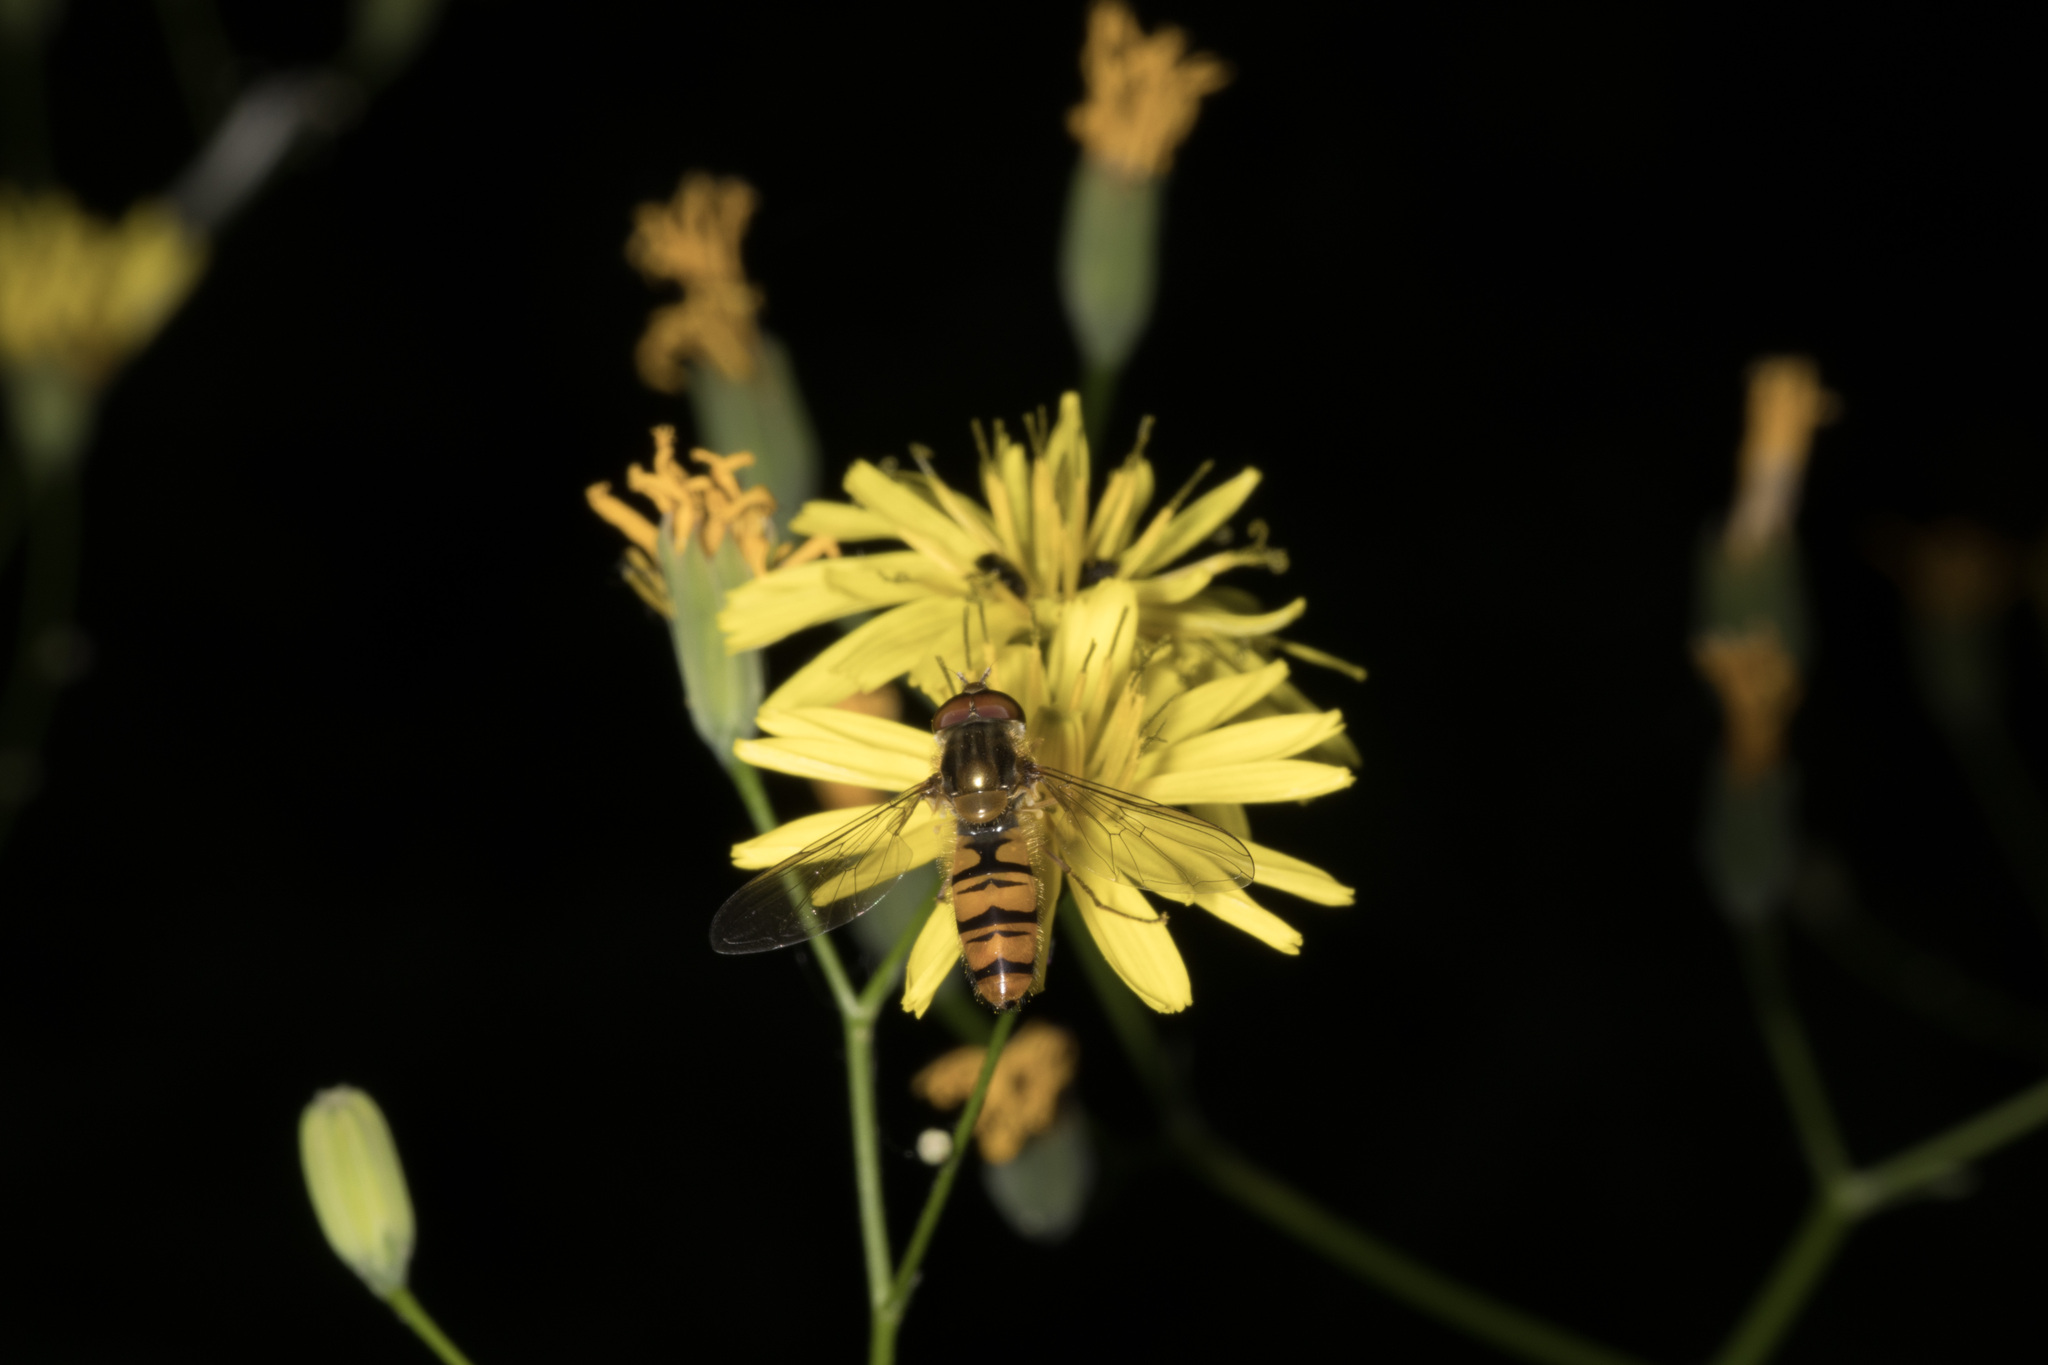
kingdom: Animalia
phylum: Arthropoda
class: Insecta
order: Diptera
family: Syrphidae
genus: Episyrphus
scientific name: Episyrphus balteatus
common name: Marmalade hoverfly
